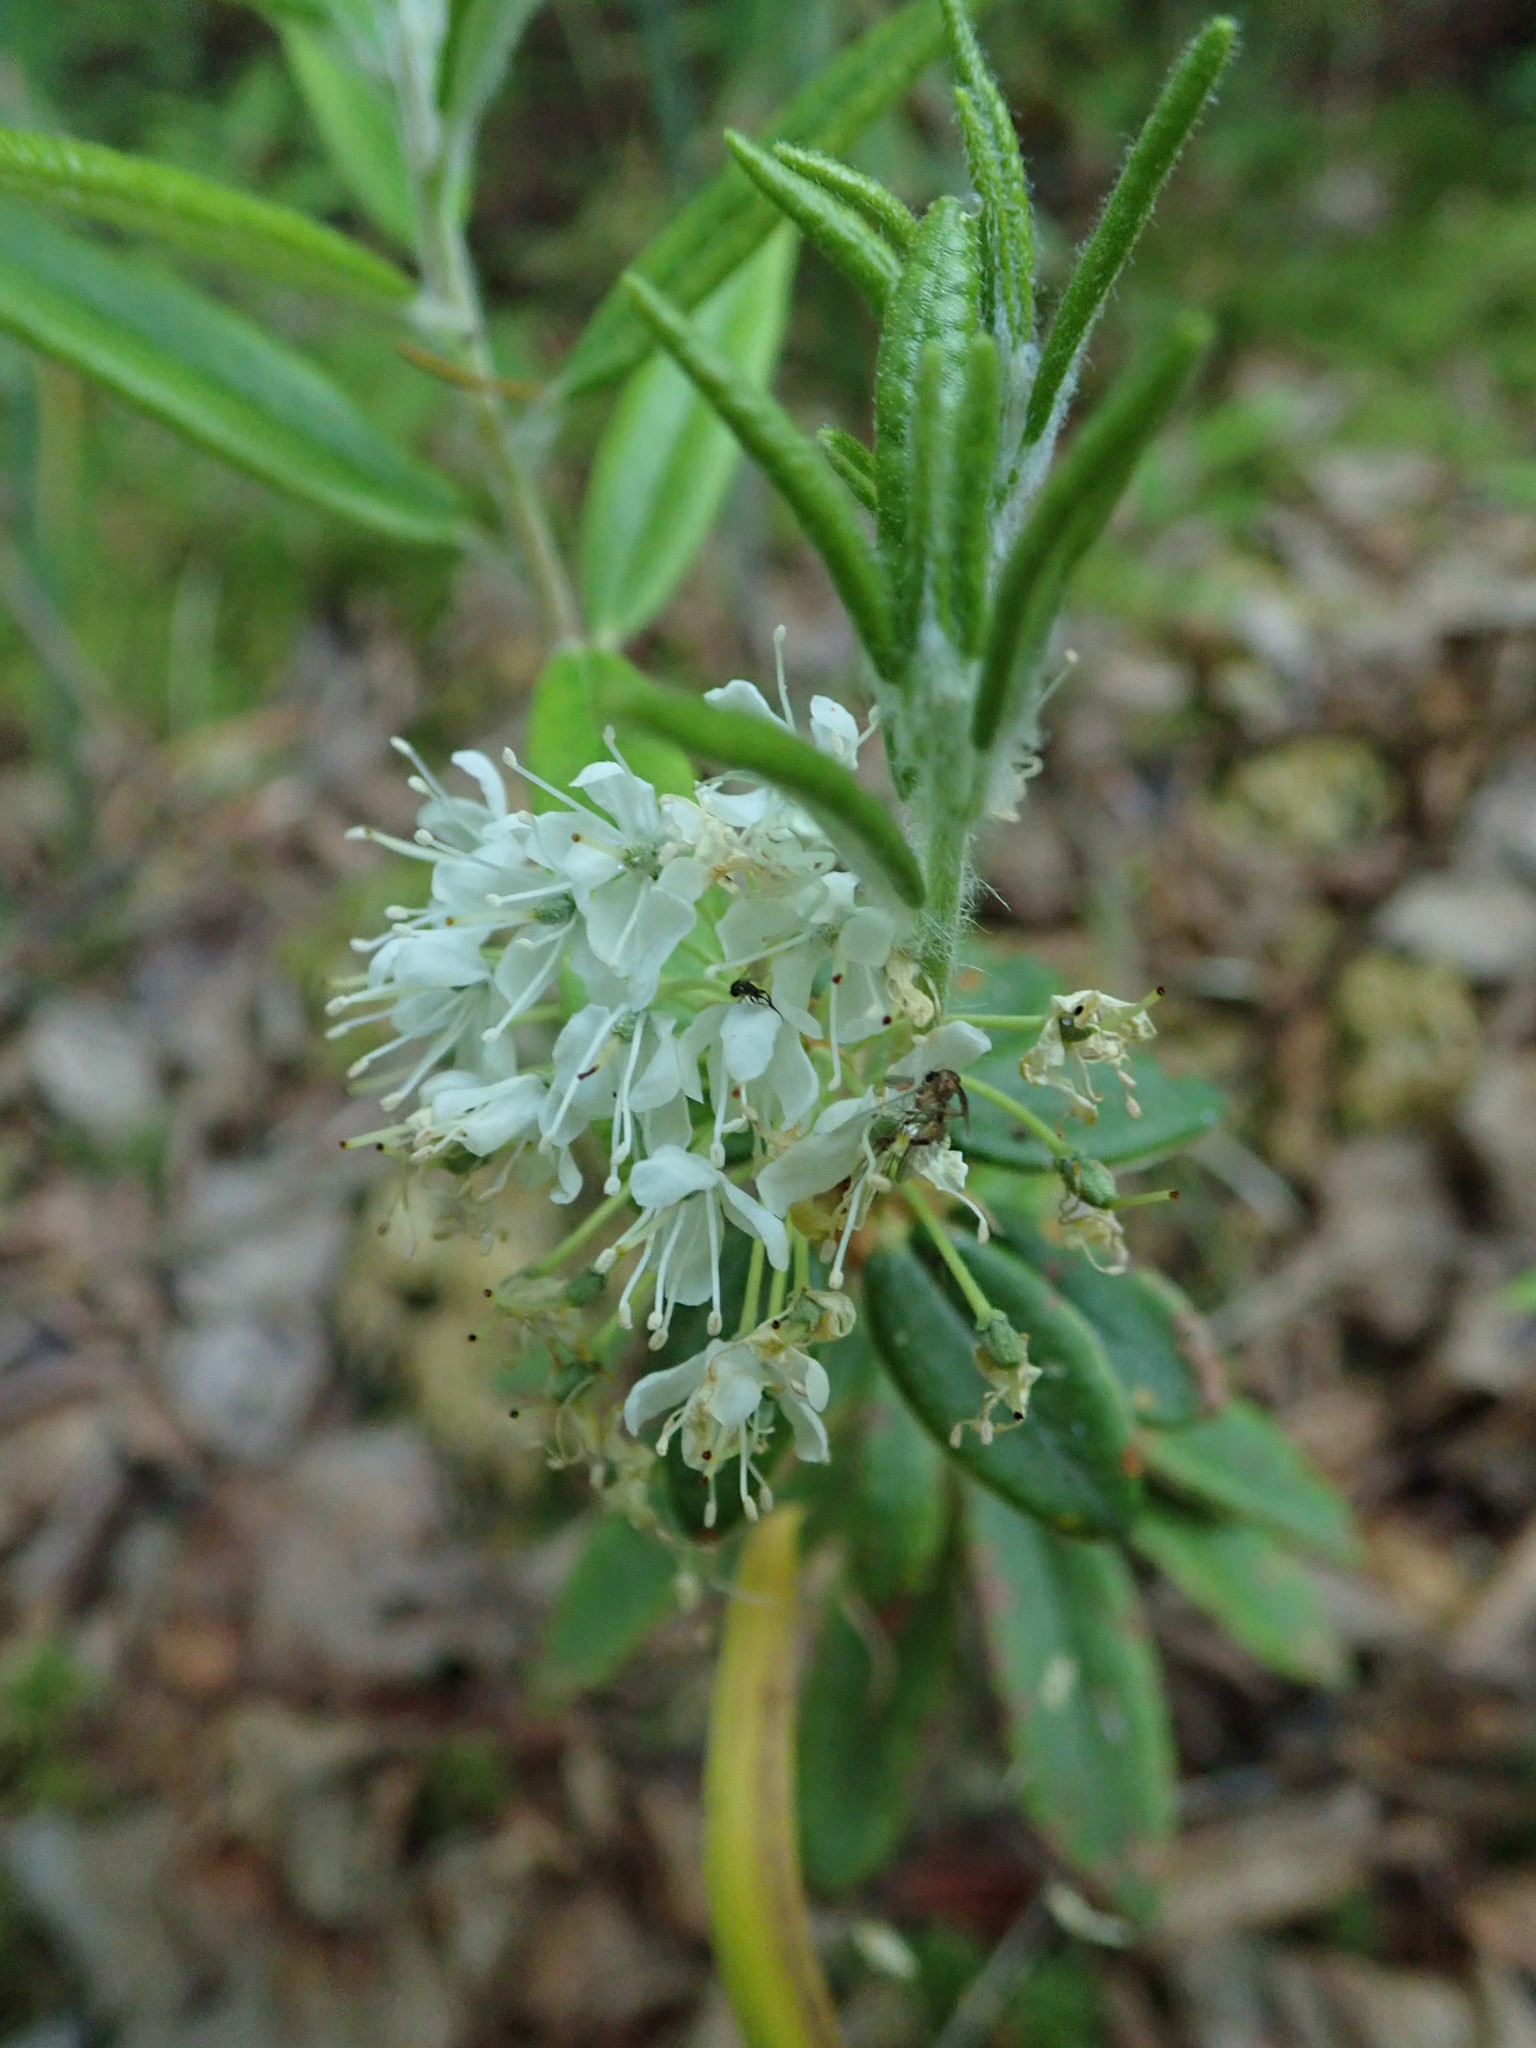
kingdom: Plantae
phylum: Tracheophyta
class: Magnoliopsida
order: Ericales
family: Ericaceae
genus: Rhododendron
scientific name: Rhododendron groenlandicum
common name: Bog labrador tea
